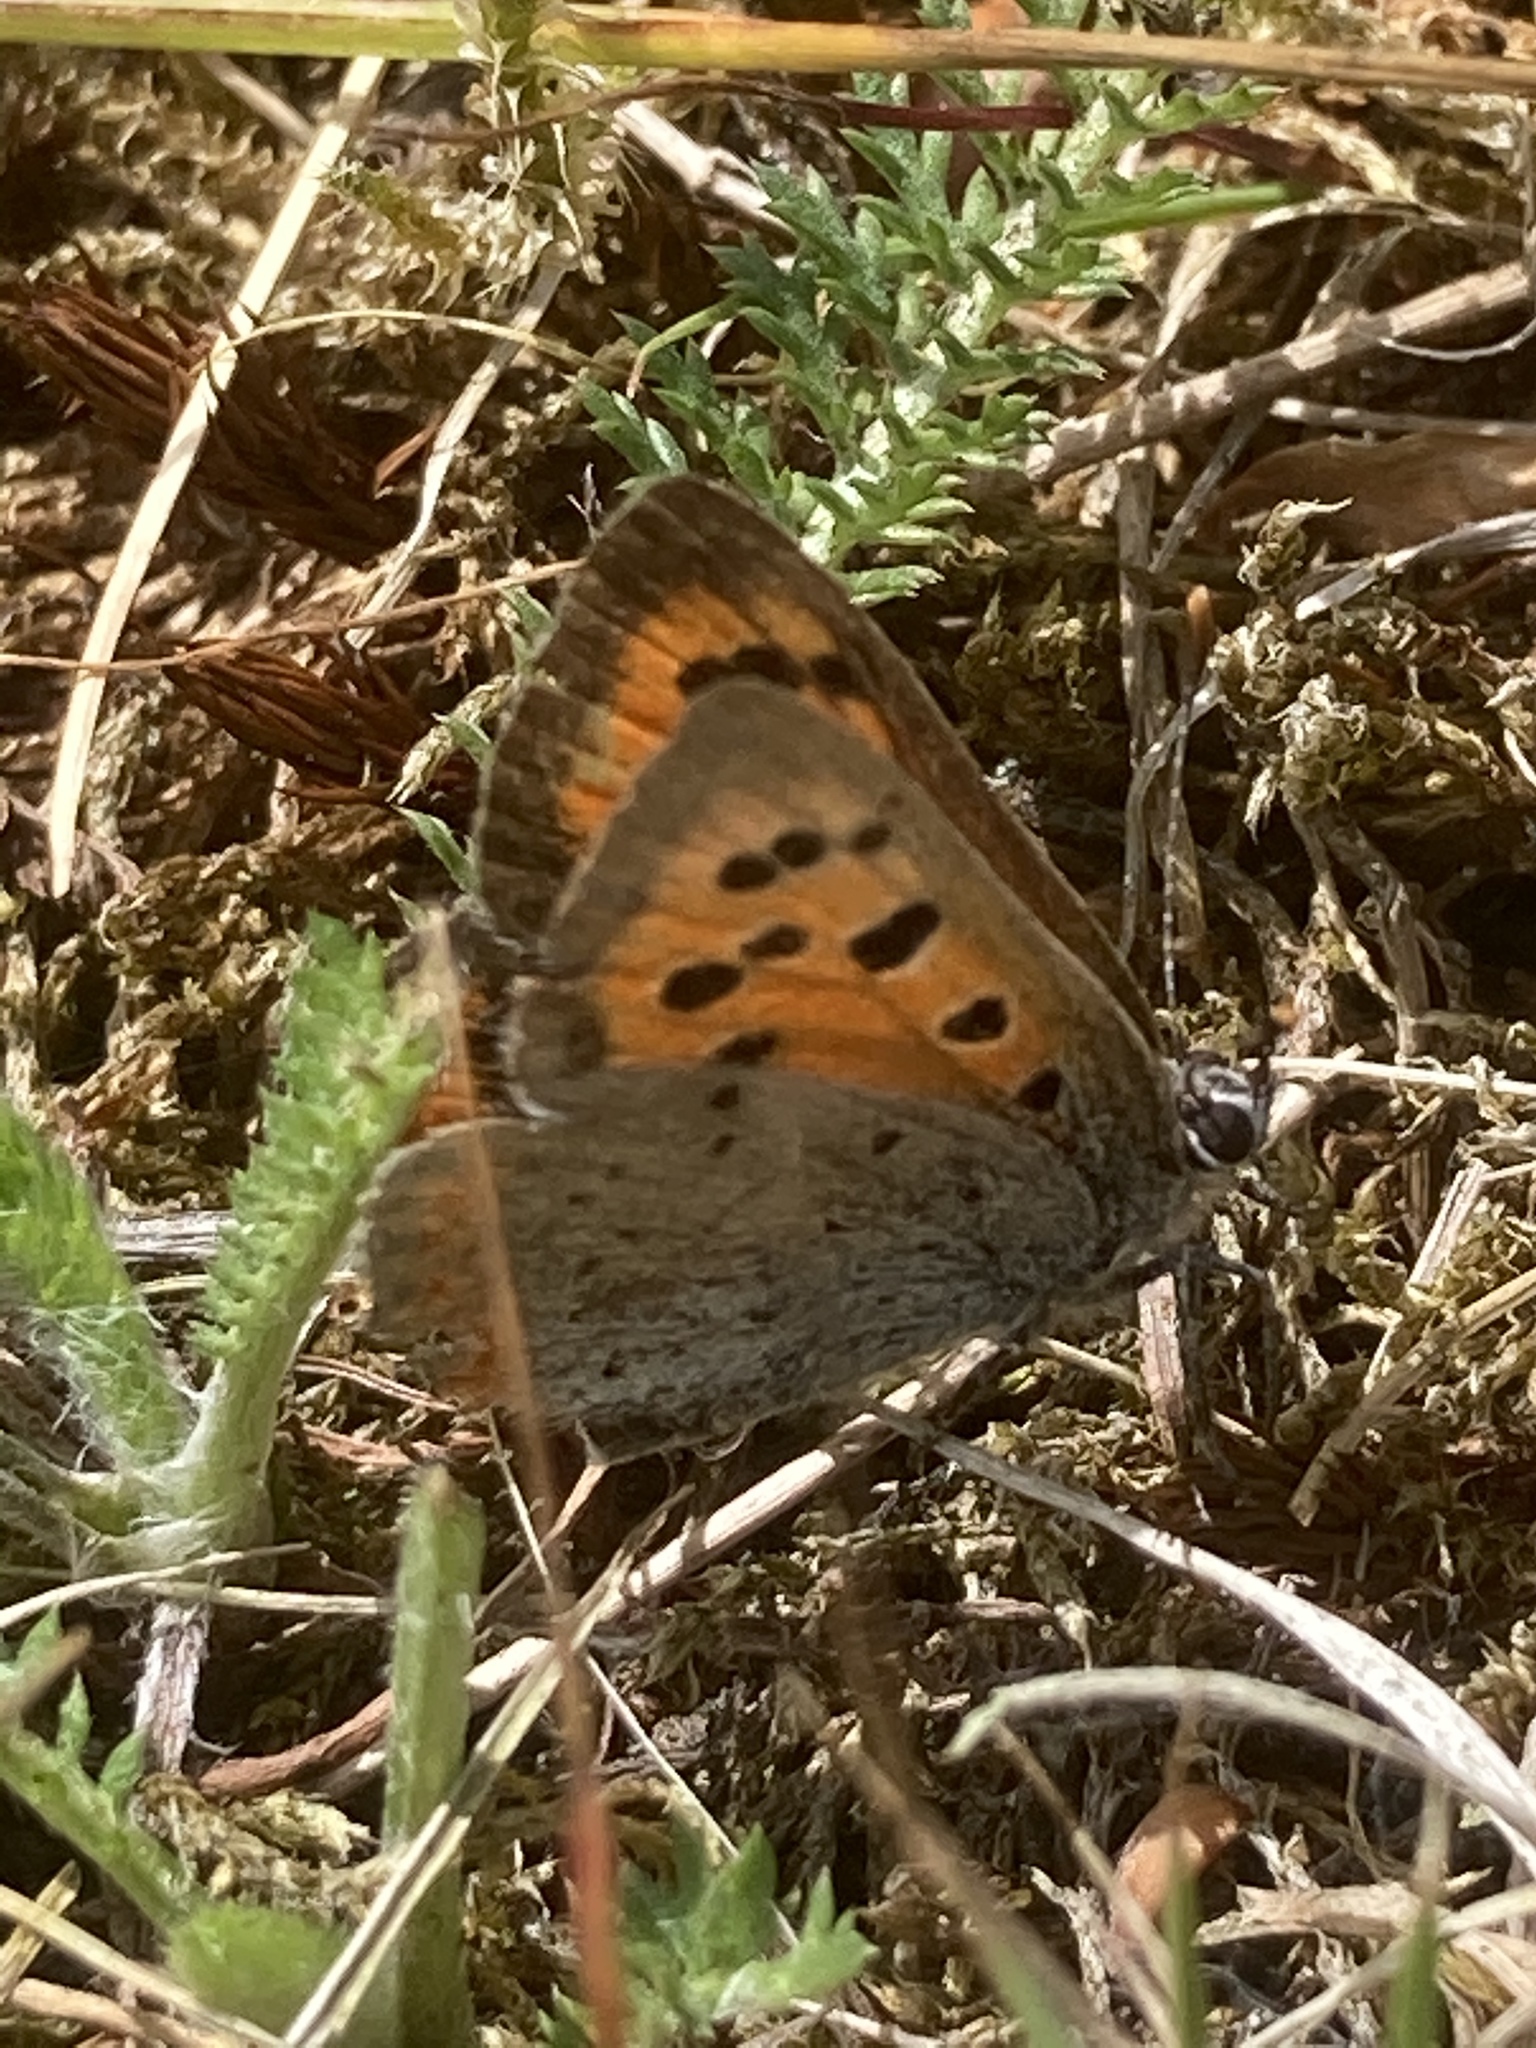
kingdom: Animalia
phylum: Arthropoda
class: Insecta
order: Lepidoptera
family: Lycaenidae
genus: Lycaena
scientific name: Lycaena phlaeas
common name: Small copper
